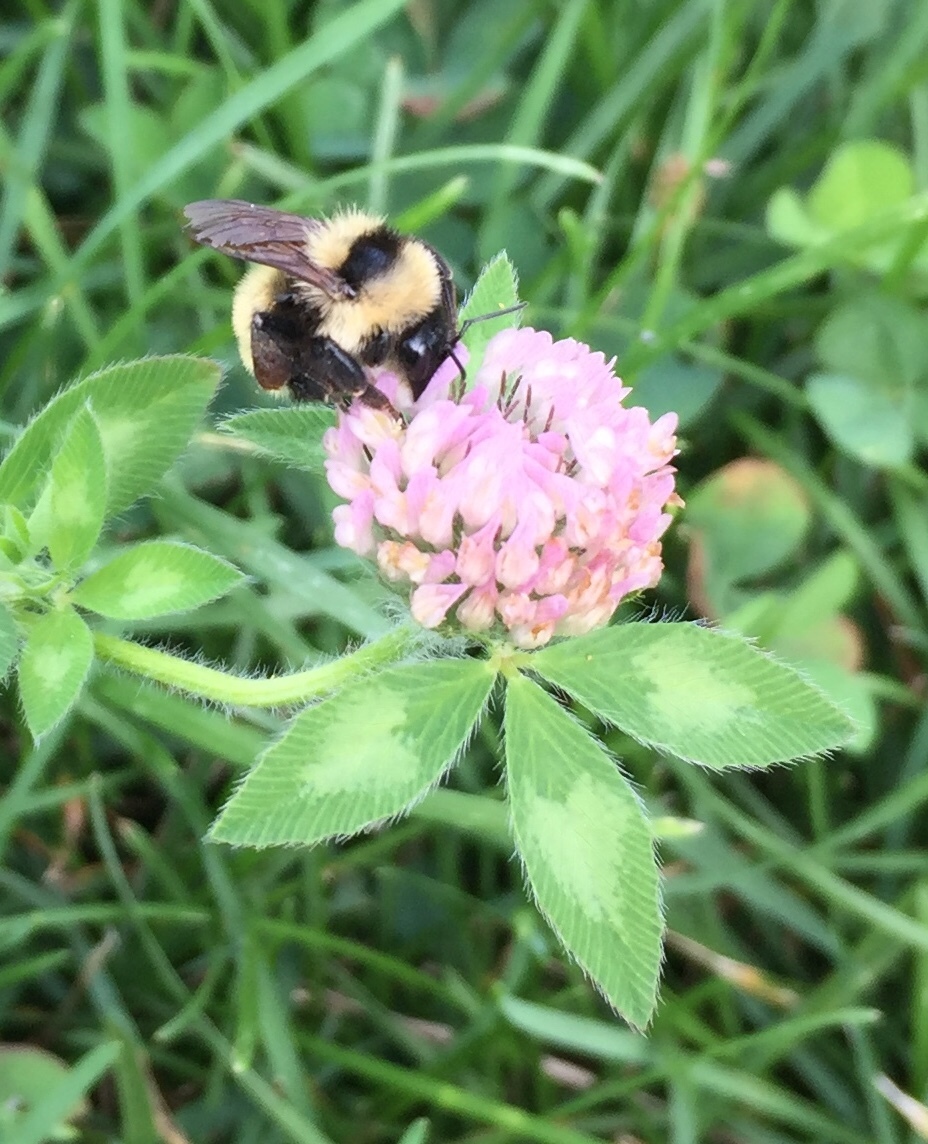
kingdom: Animalia
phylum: Arthropoda
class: Insecta
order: Hymenoptera
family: Apidae
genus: Bombus
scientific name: Bombus fervidus
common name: Yellow bumble bee
